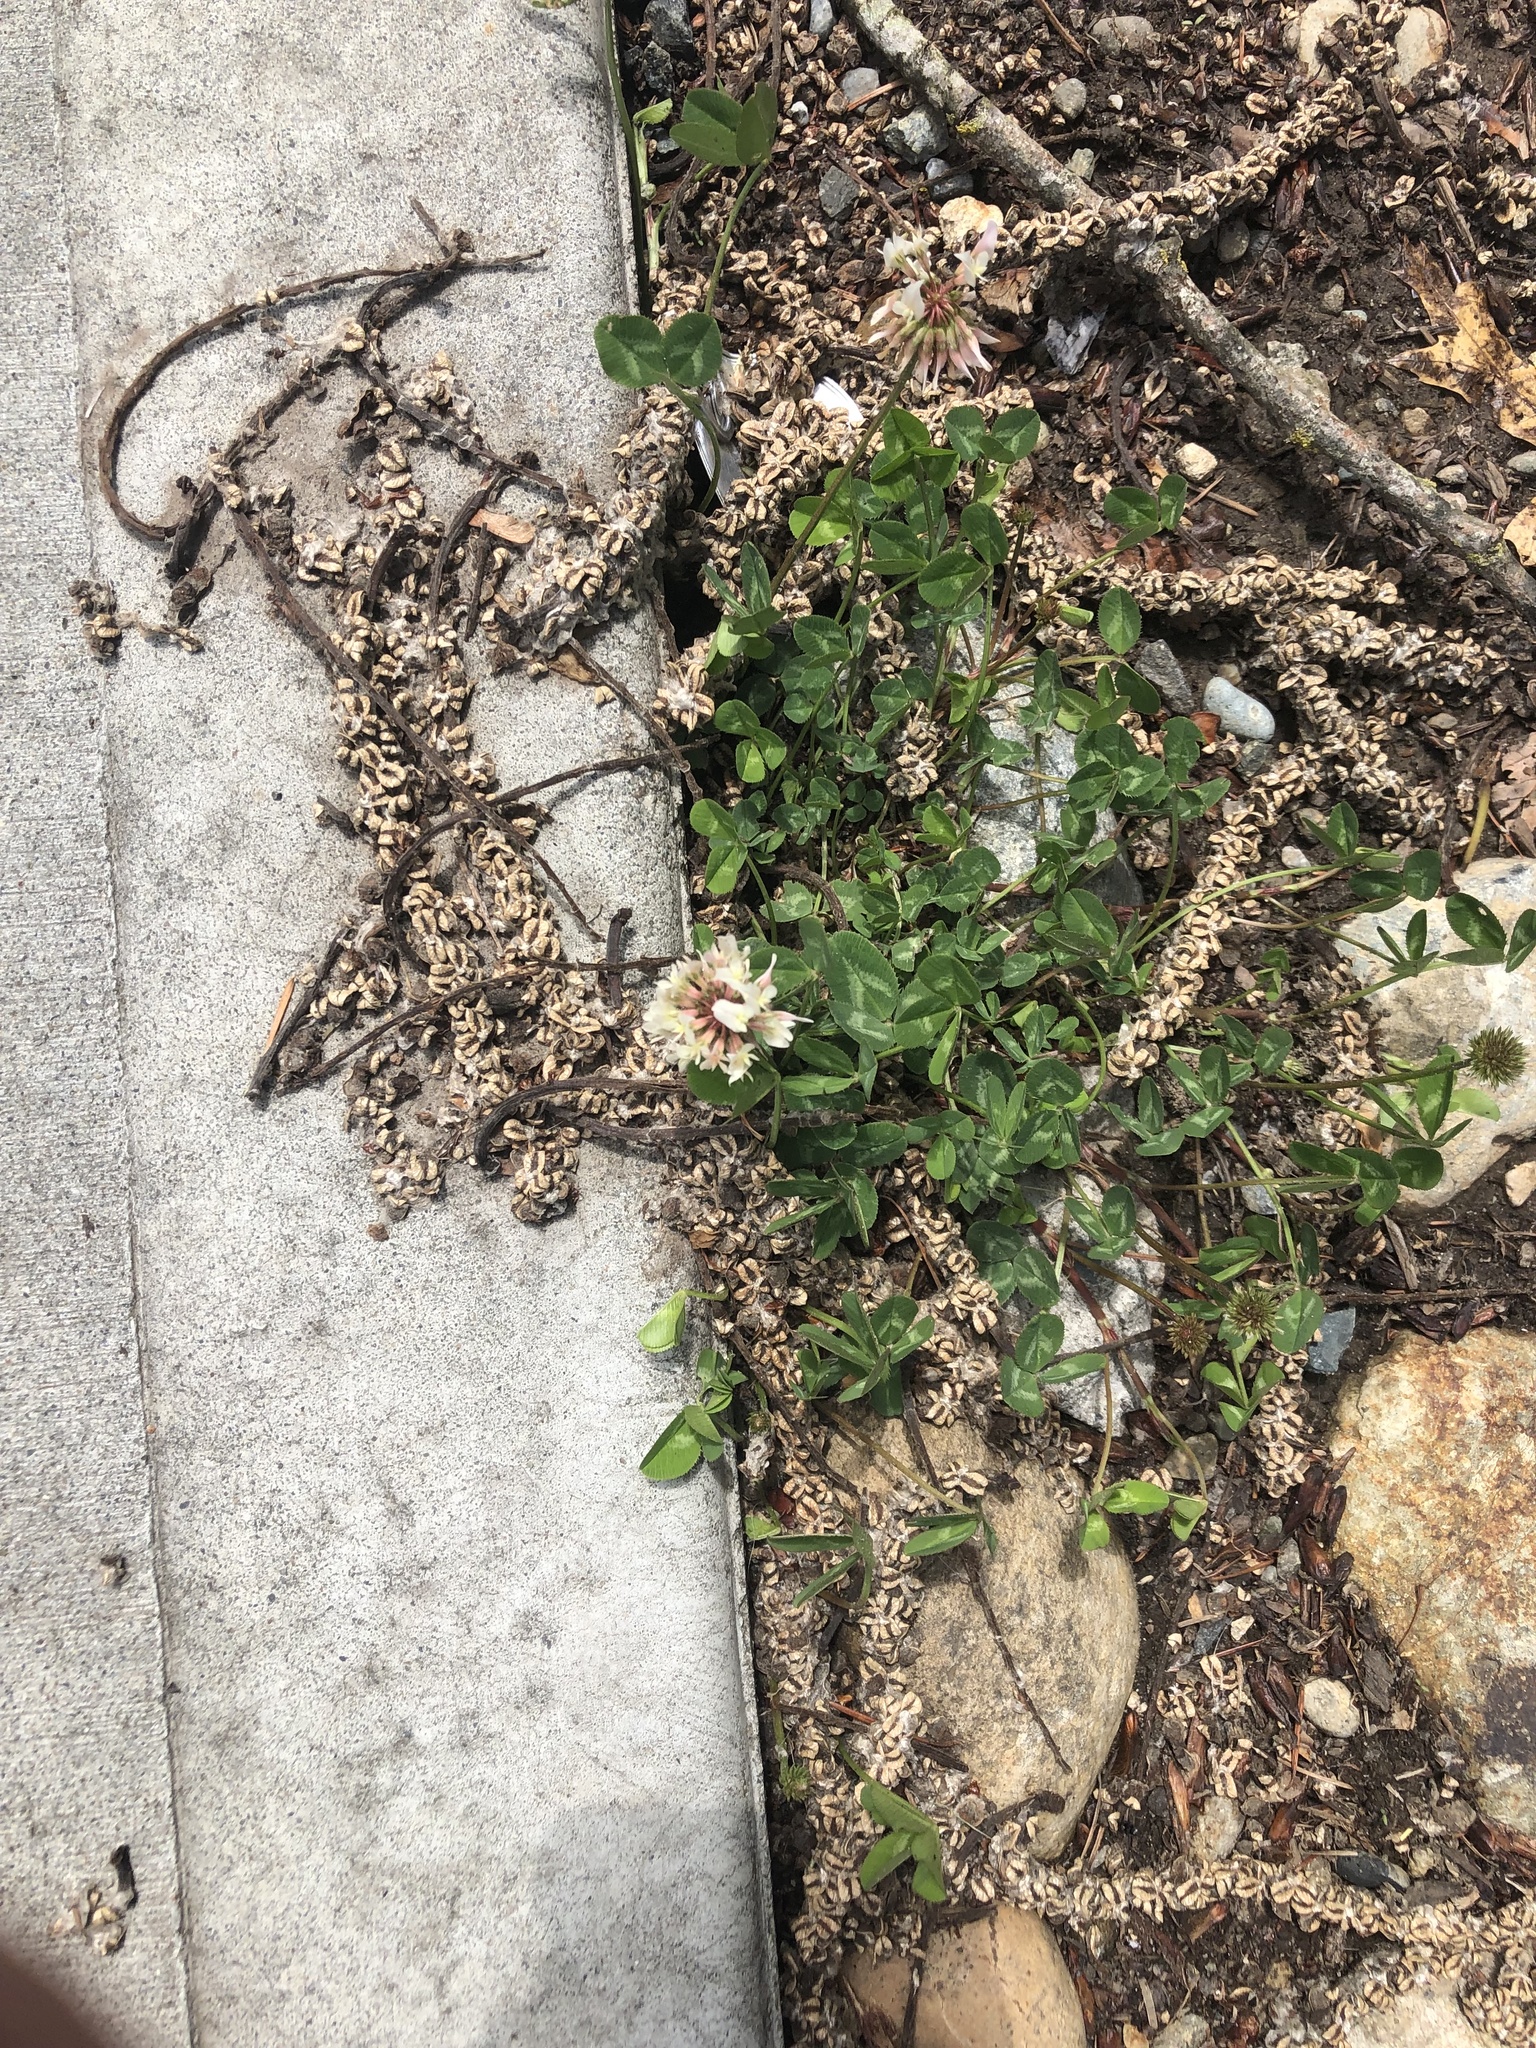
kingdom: Plantae
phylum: Tracheophyta
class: Magnoliopsida
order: Fabales
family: Fabaceae
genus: Trifolium
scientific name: Trifolium repens
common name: White clover
